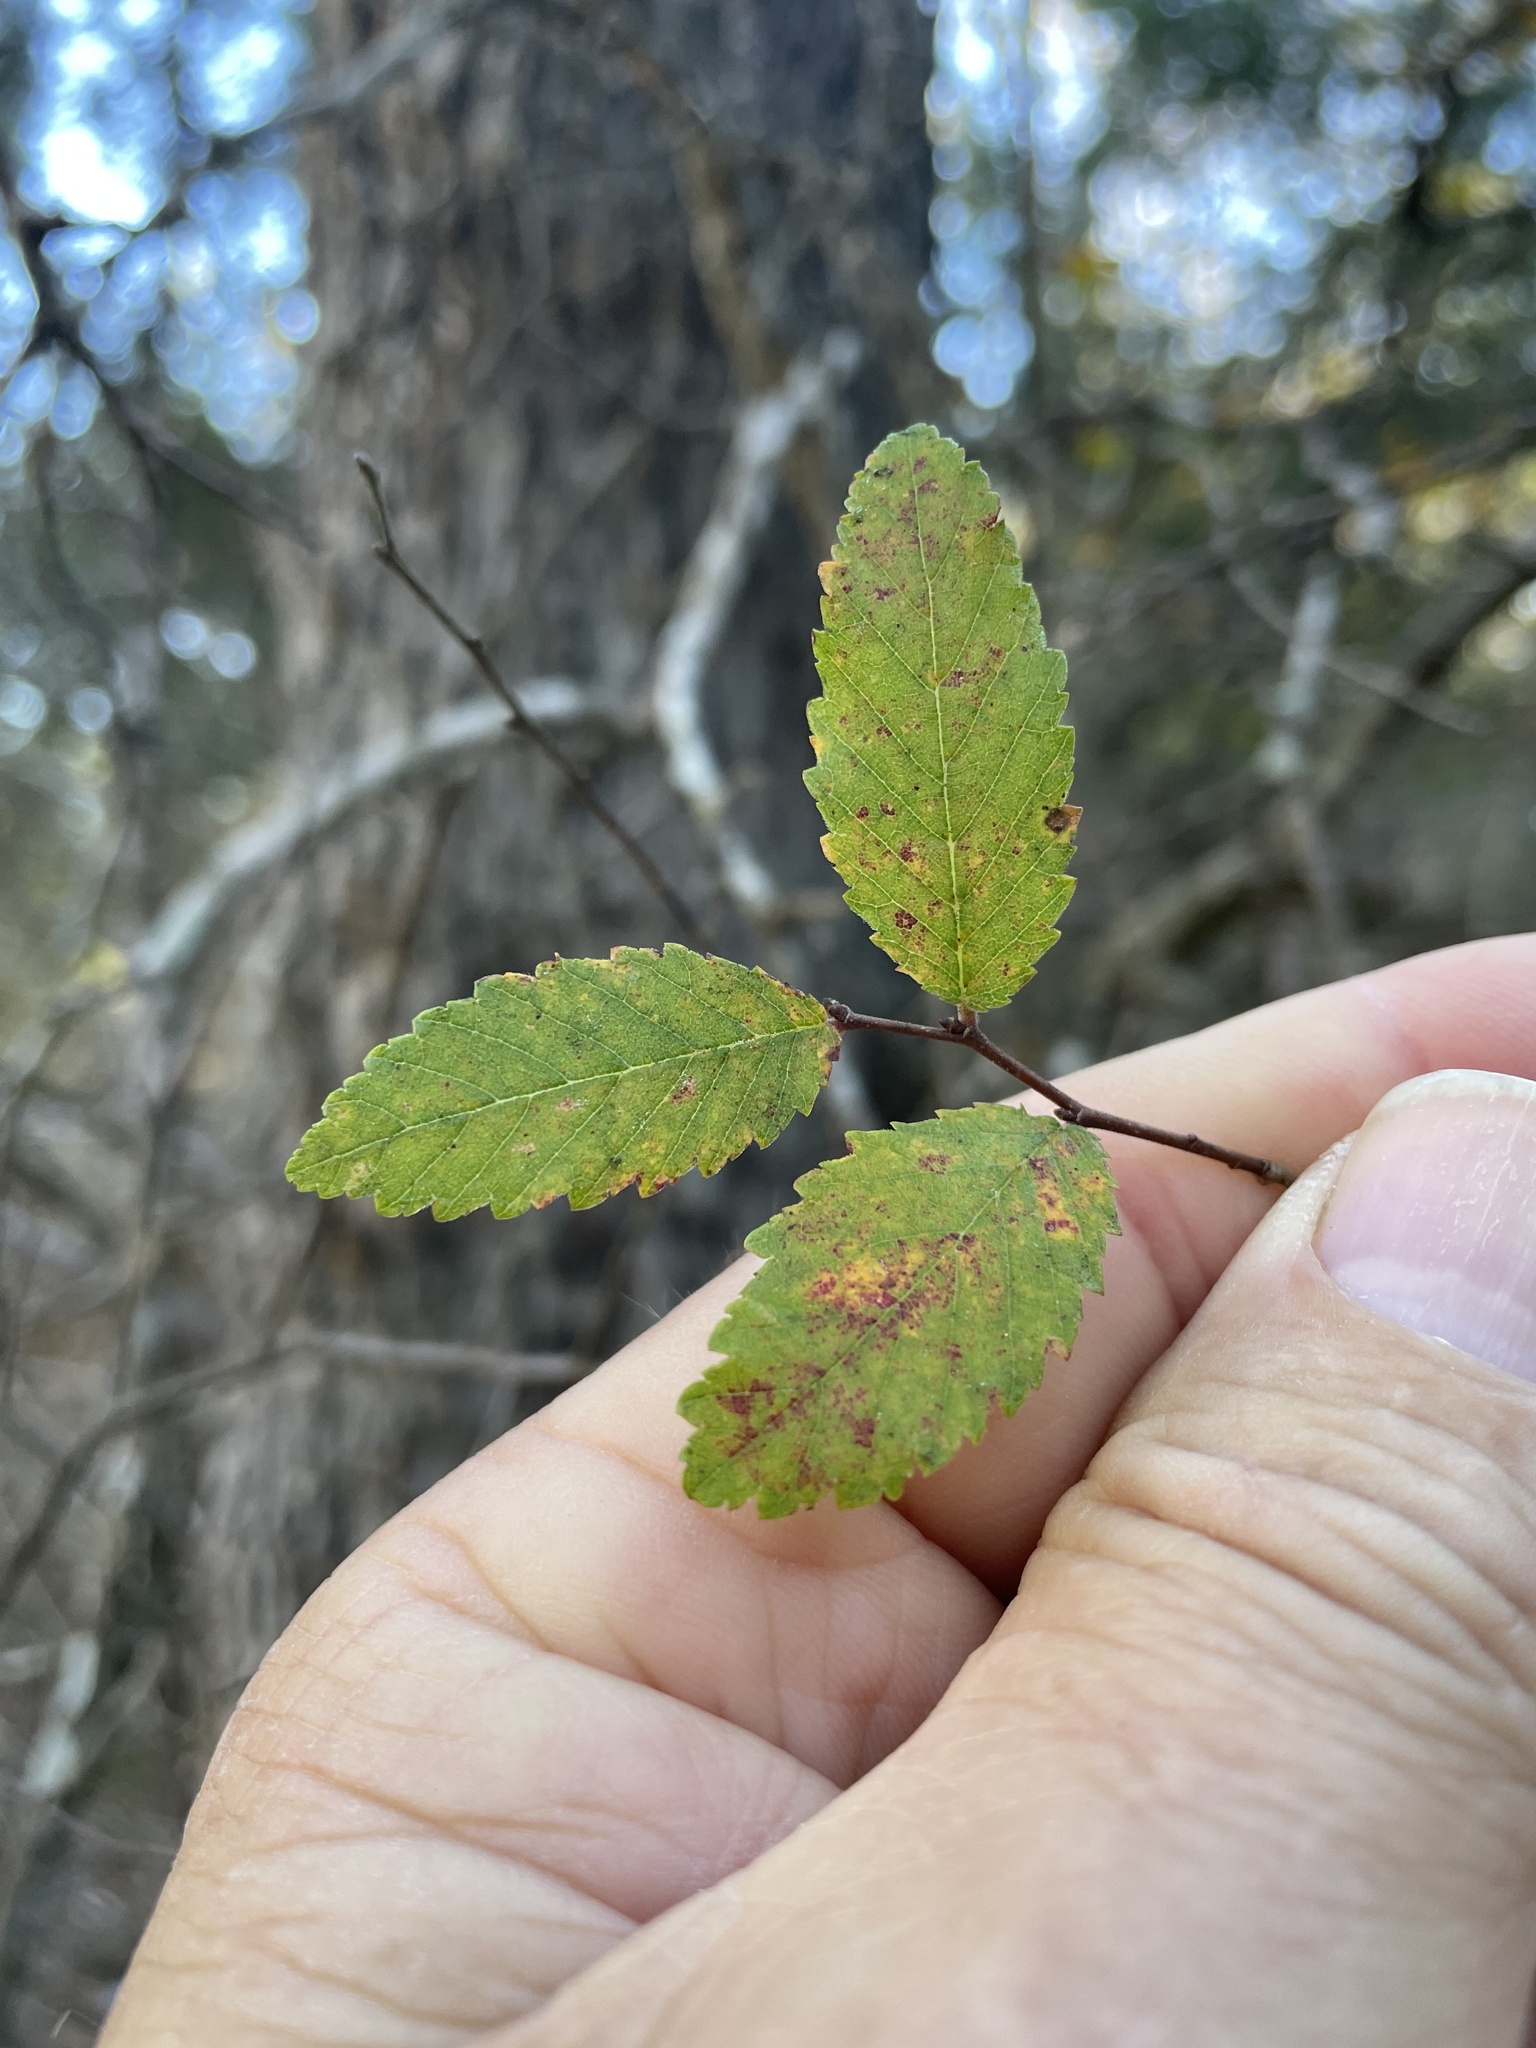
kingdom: Plantae
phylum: Tracheophyta
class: Magnoliopsida
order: Rosales
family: Ulmaceae
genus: Ulmus
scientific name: Ulmus crassifolia
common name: Basket elm
